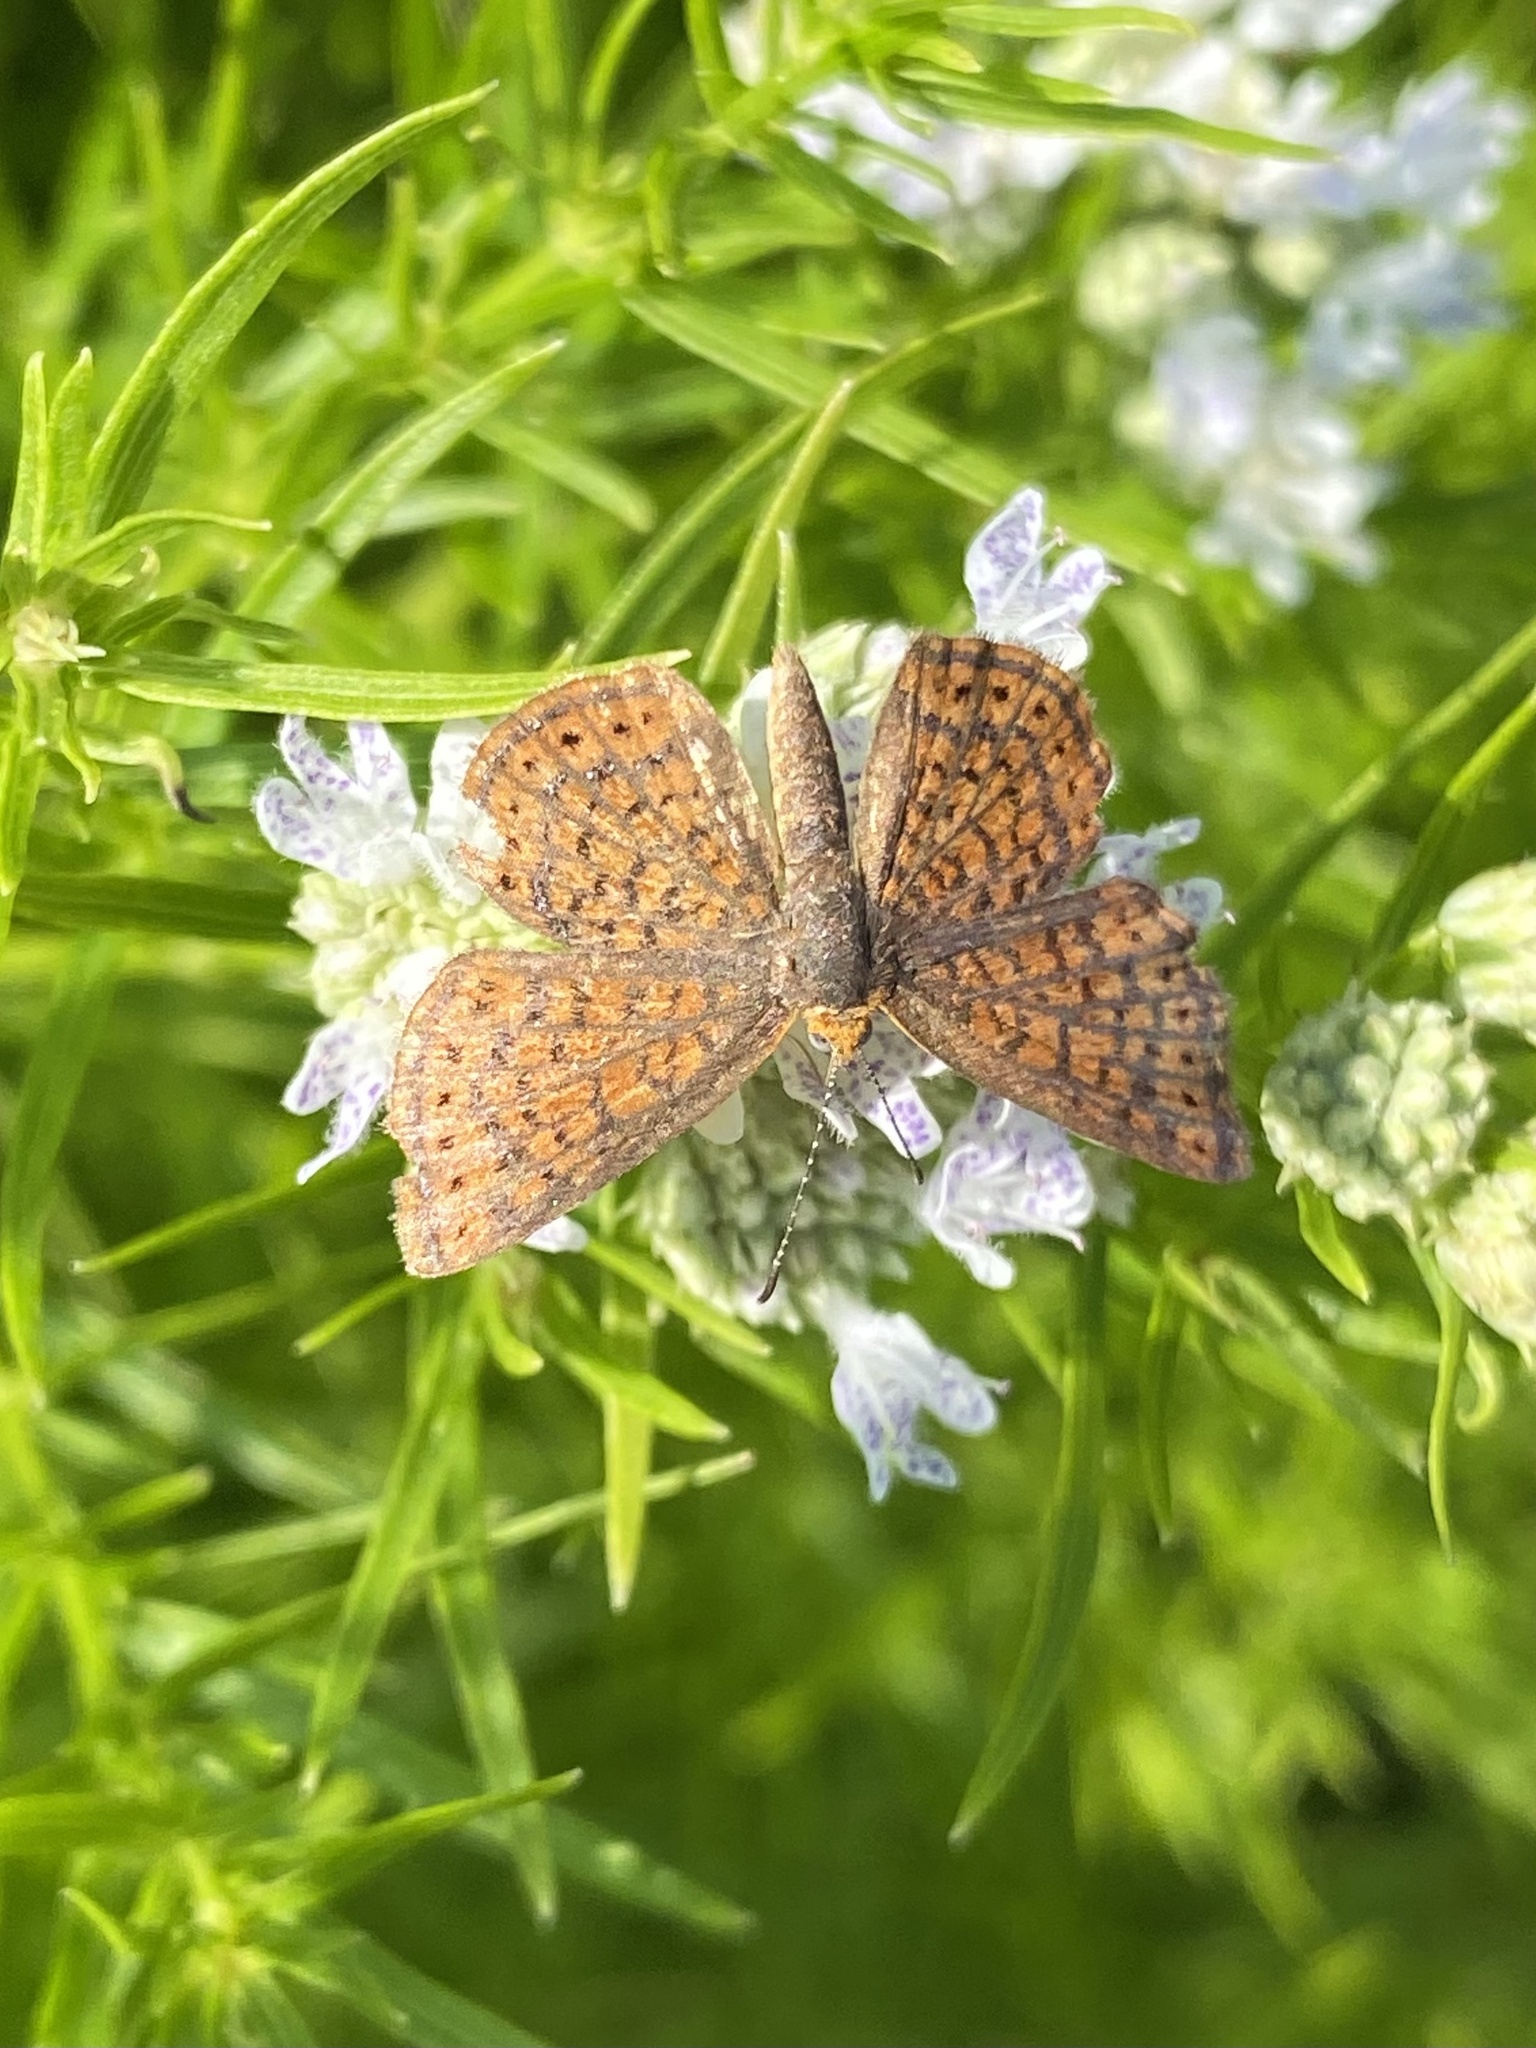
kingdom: Animalia
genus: Calephelis
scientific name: Calephelis virginiensis
